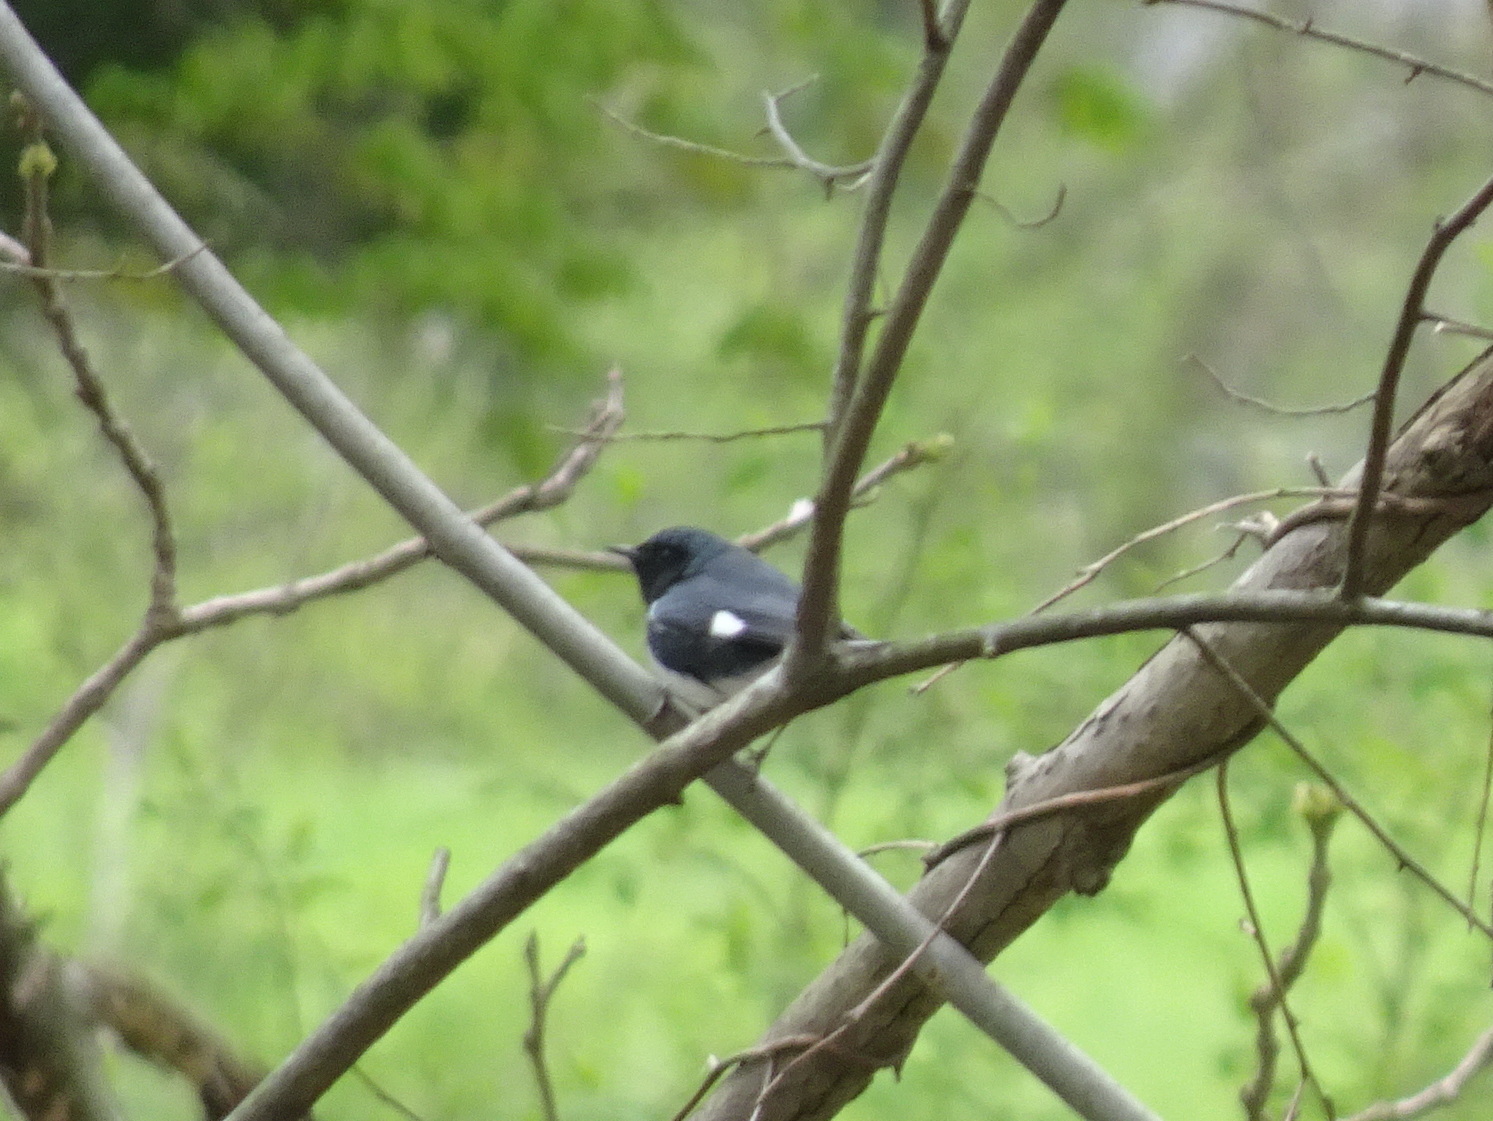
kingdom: Animalia
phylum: Chordata
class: Aves
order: Passeriformes
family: Parulidae
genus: Setophaga
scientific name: Setophaga caerulescens
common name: Black-throated blue warbler
